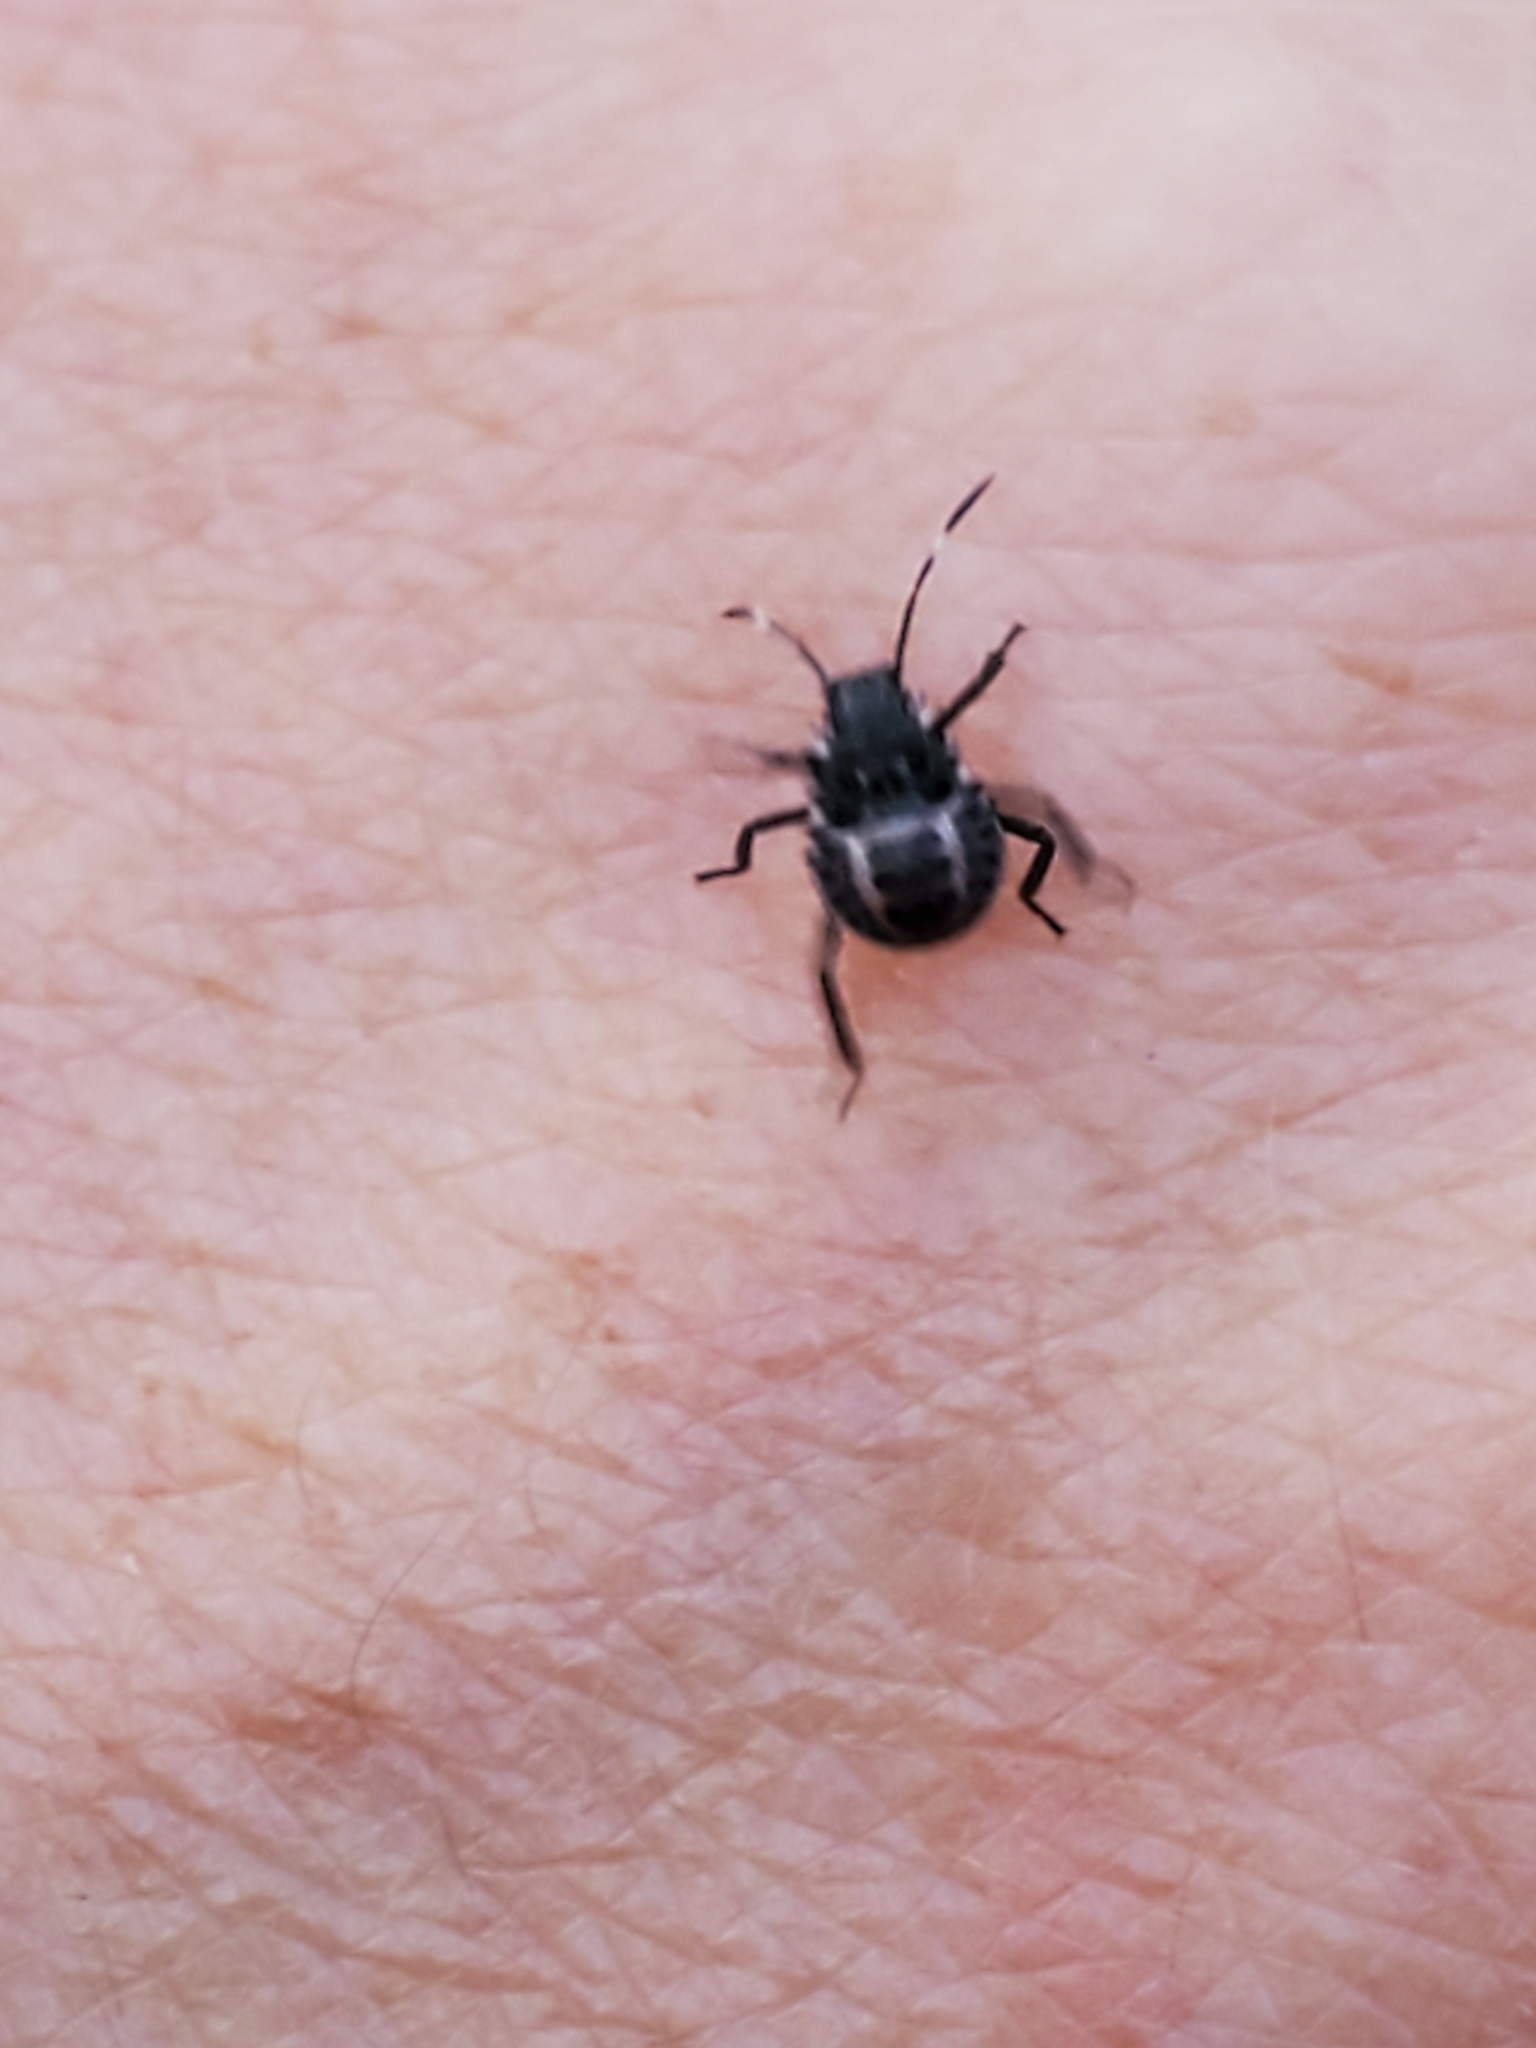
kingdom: Animalia
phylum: Arthropoda
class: Insecta
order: Hemiptera
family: Pentatomidae
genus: Halyomorpha
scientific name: Halyomorpha halys
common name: Brown marmorated stink bug
